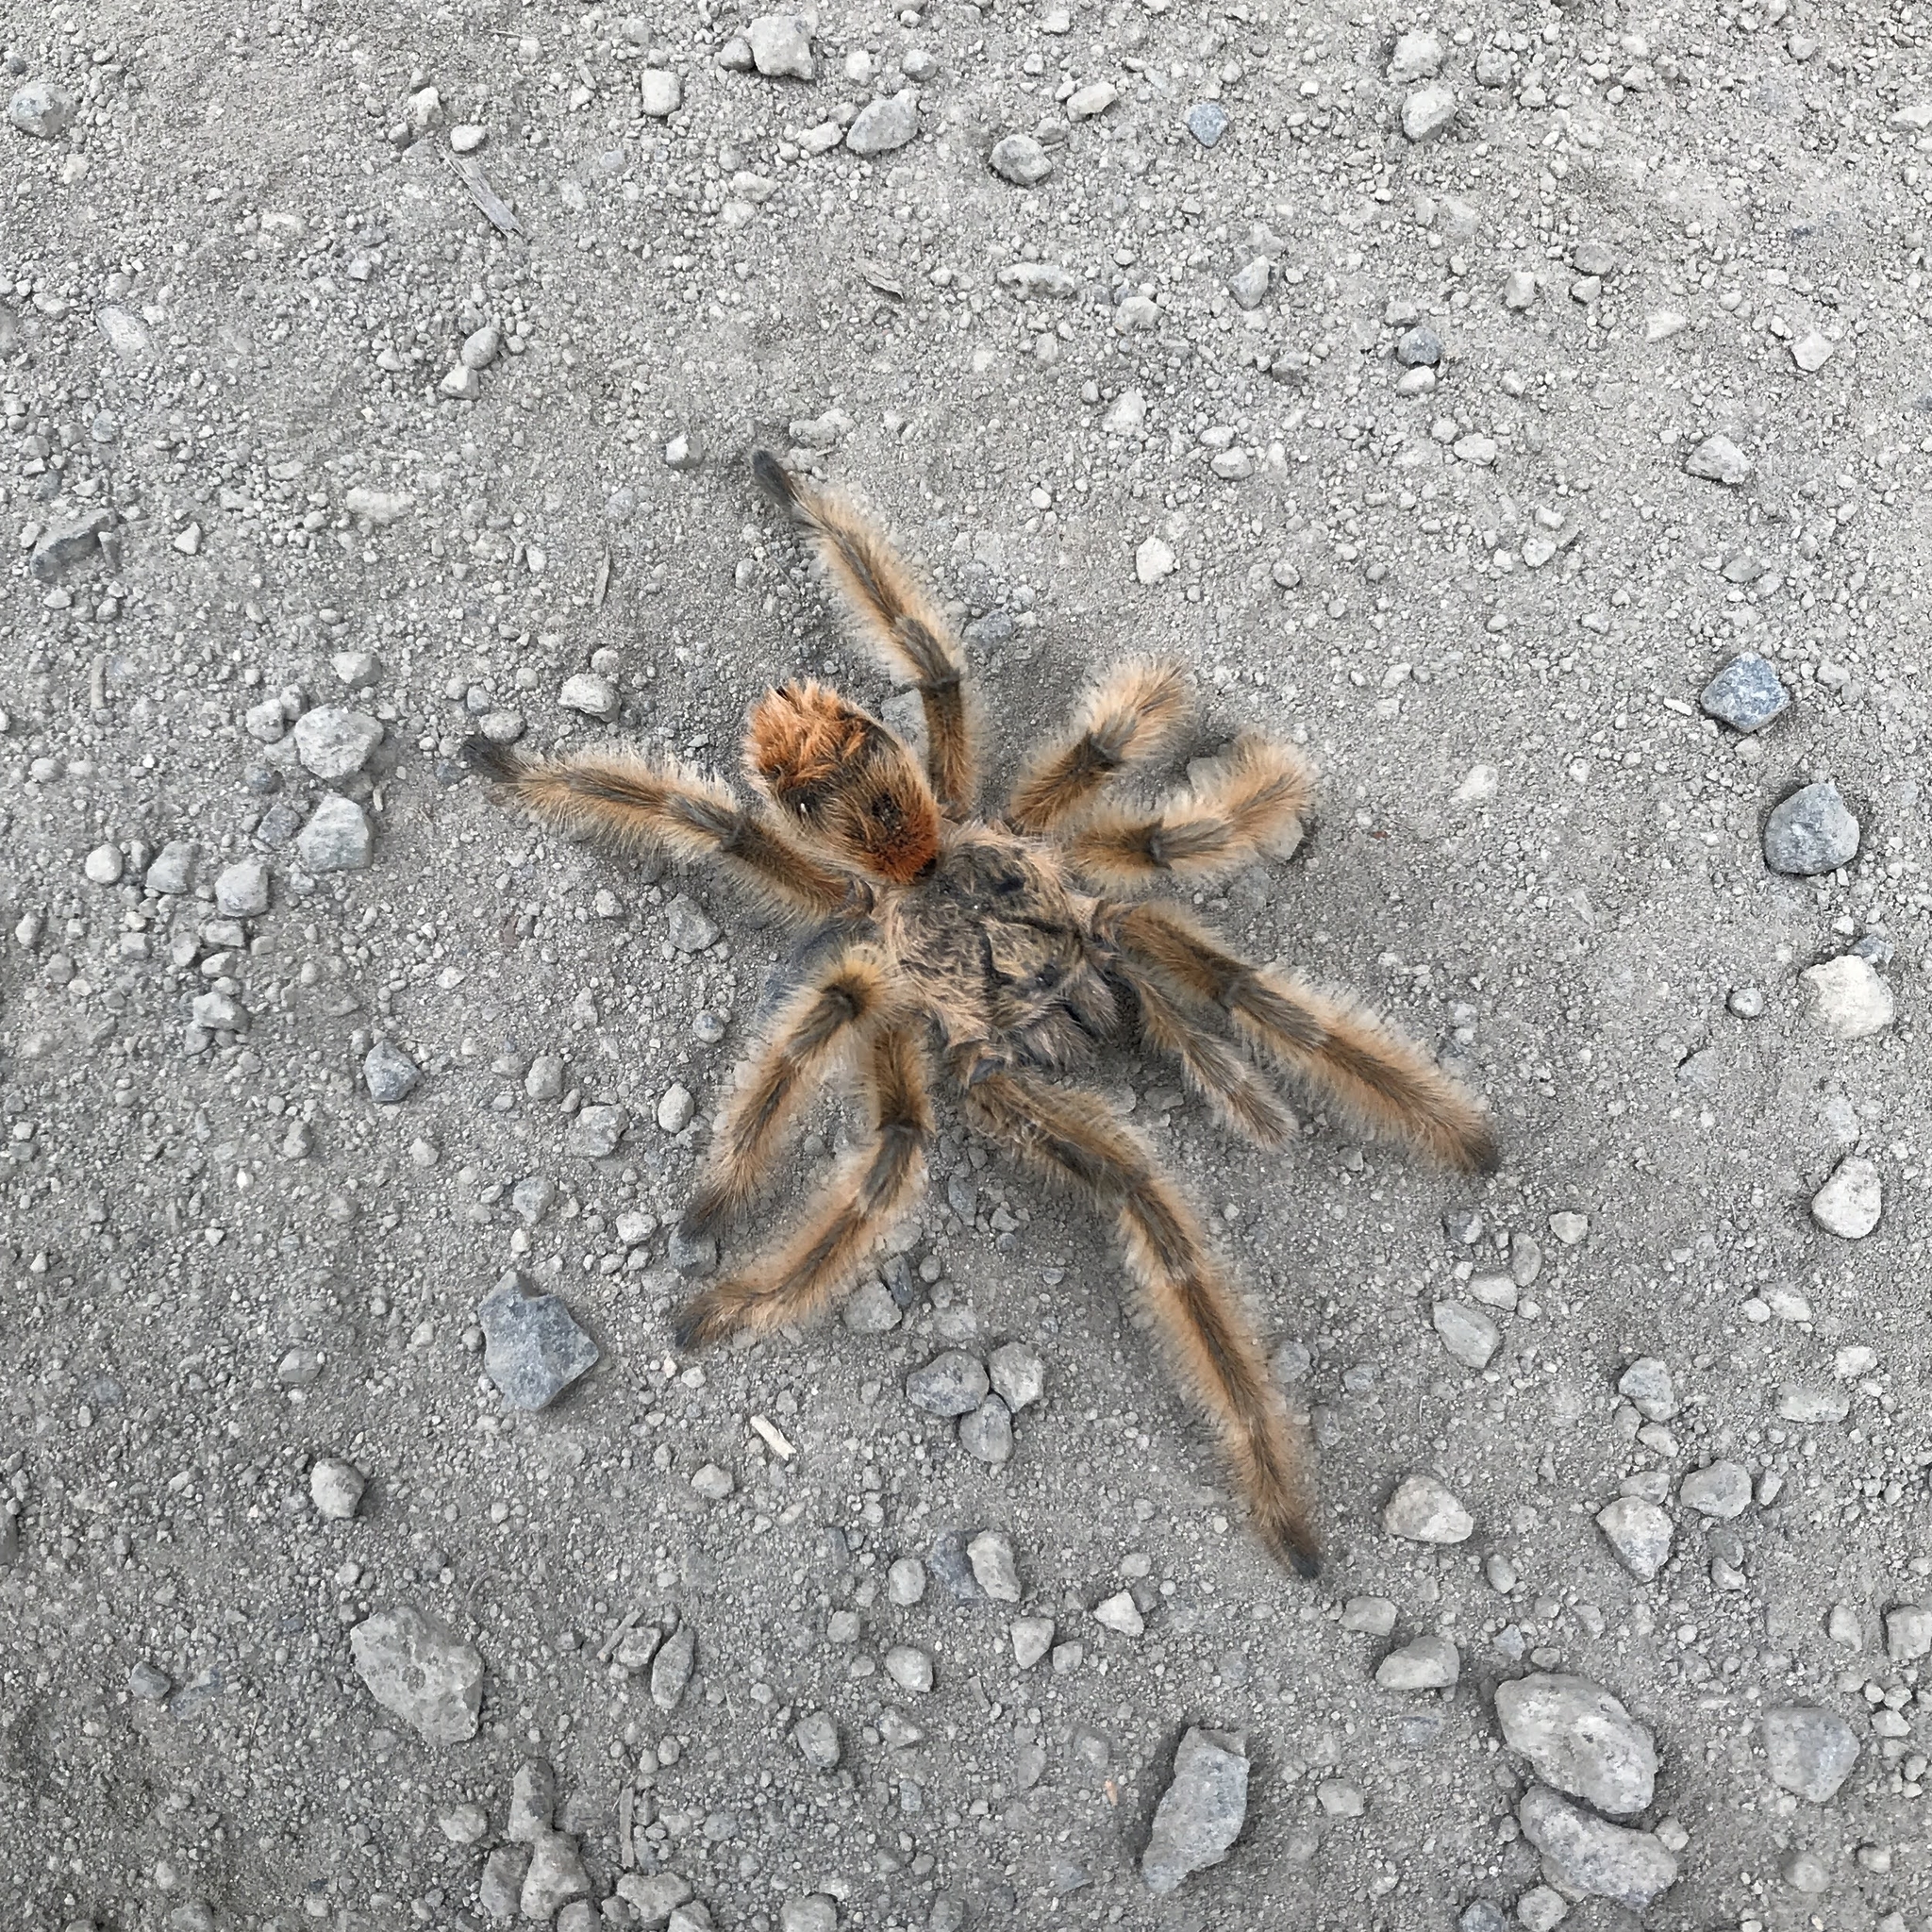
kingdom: Animalia
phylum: Arthropoda
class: Arachnida
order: Araneae
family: Theraphosidae
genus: Phrixotrichus
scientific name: Phrixotrichus vulpinus
